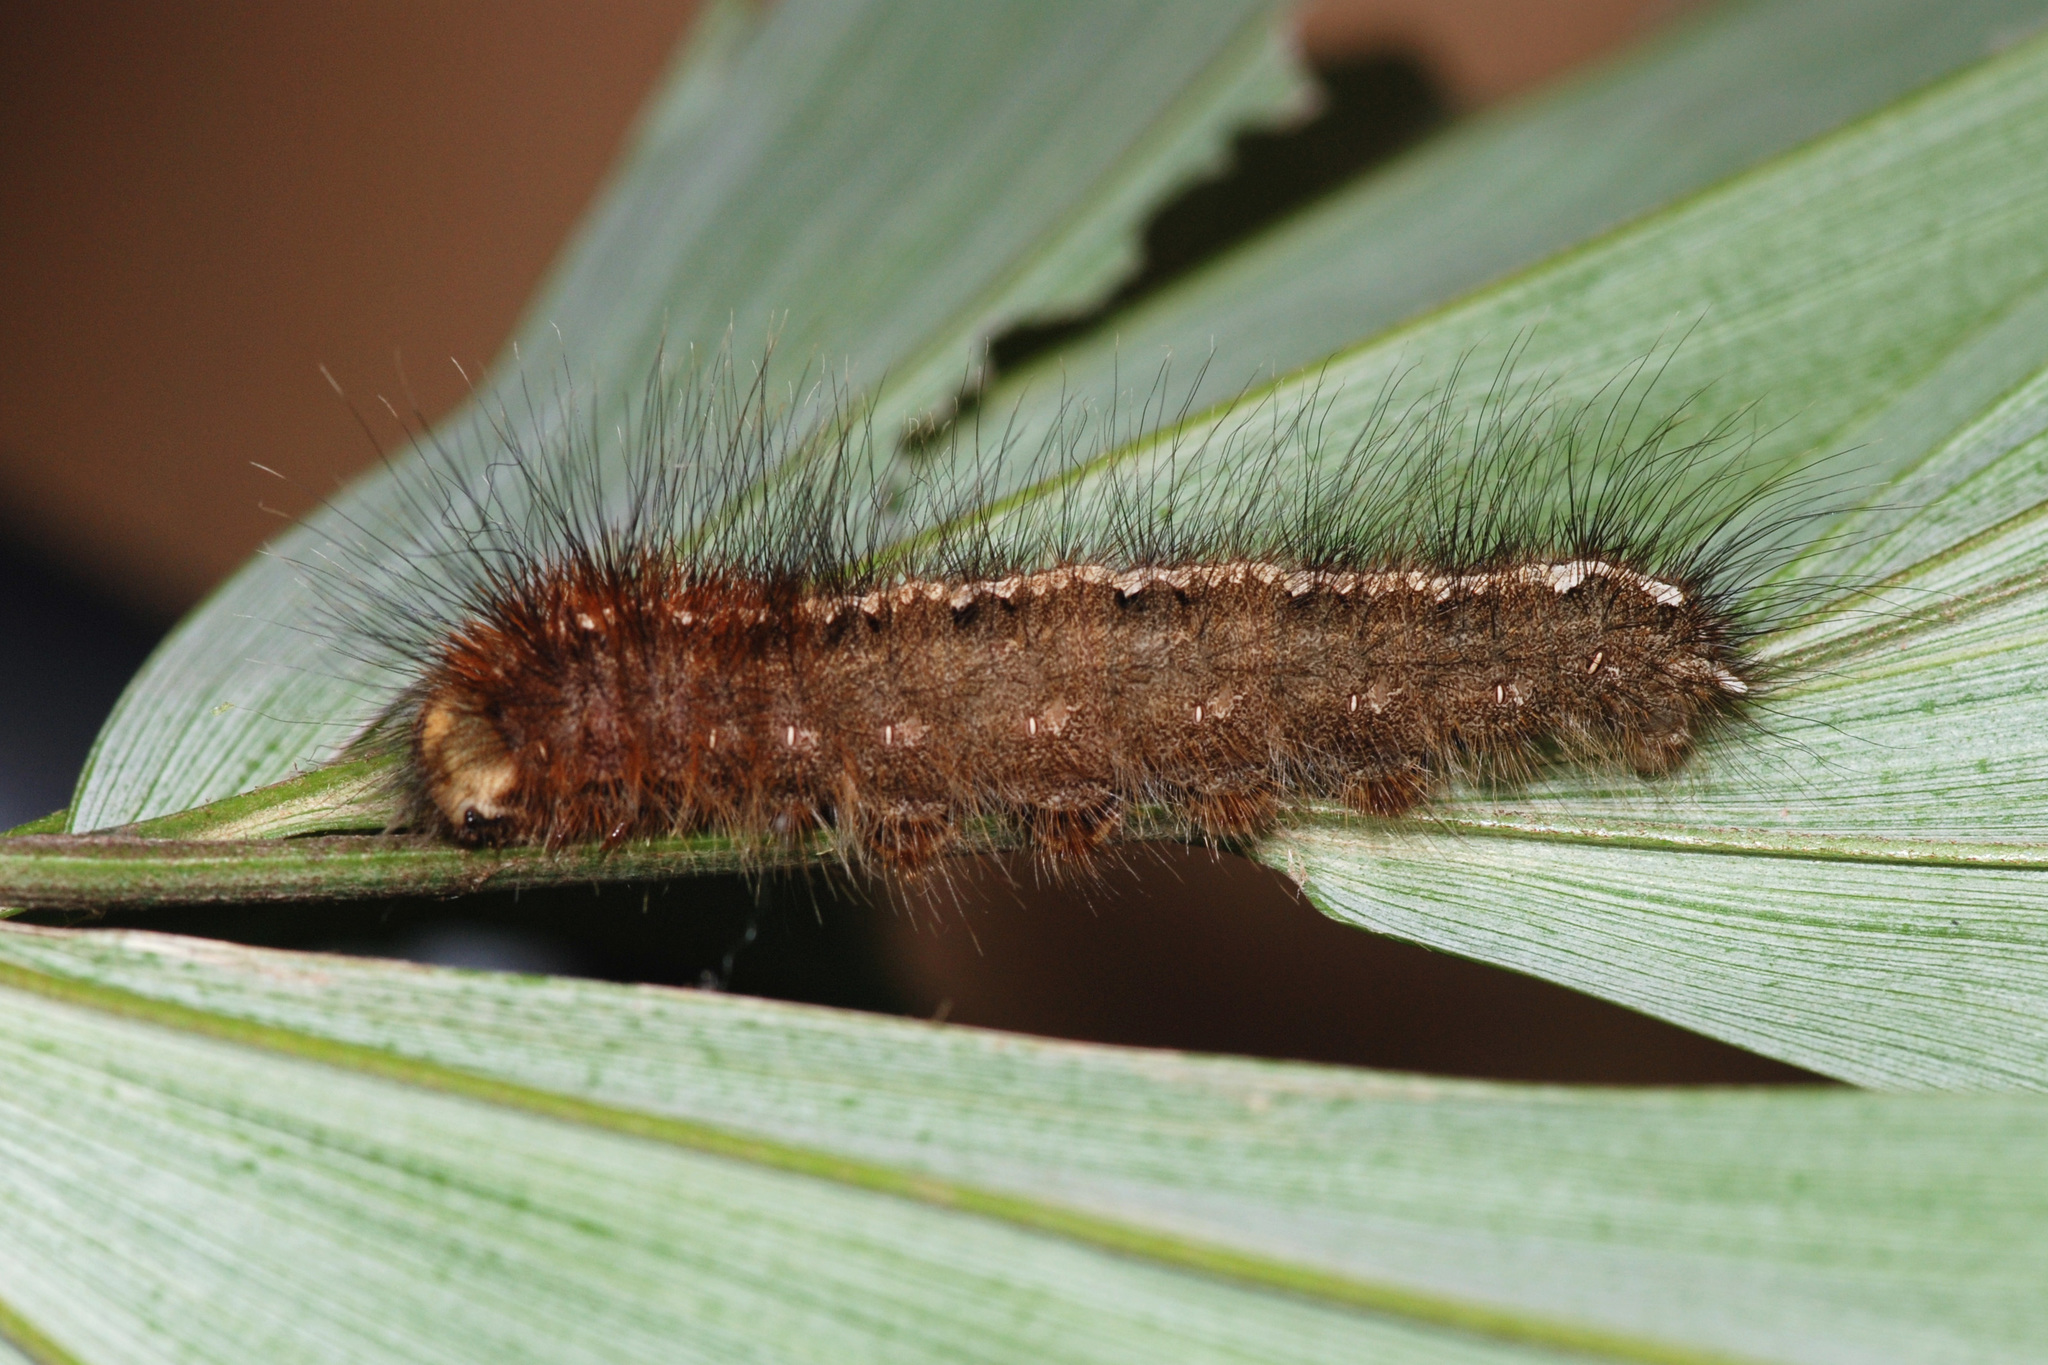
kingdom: Animalia
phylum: Arthropoda
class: Insecta
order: Lepidoptera
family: Nymphalidae
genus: Discophora
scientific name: Discophora timora
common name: Great duffer
